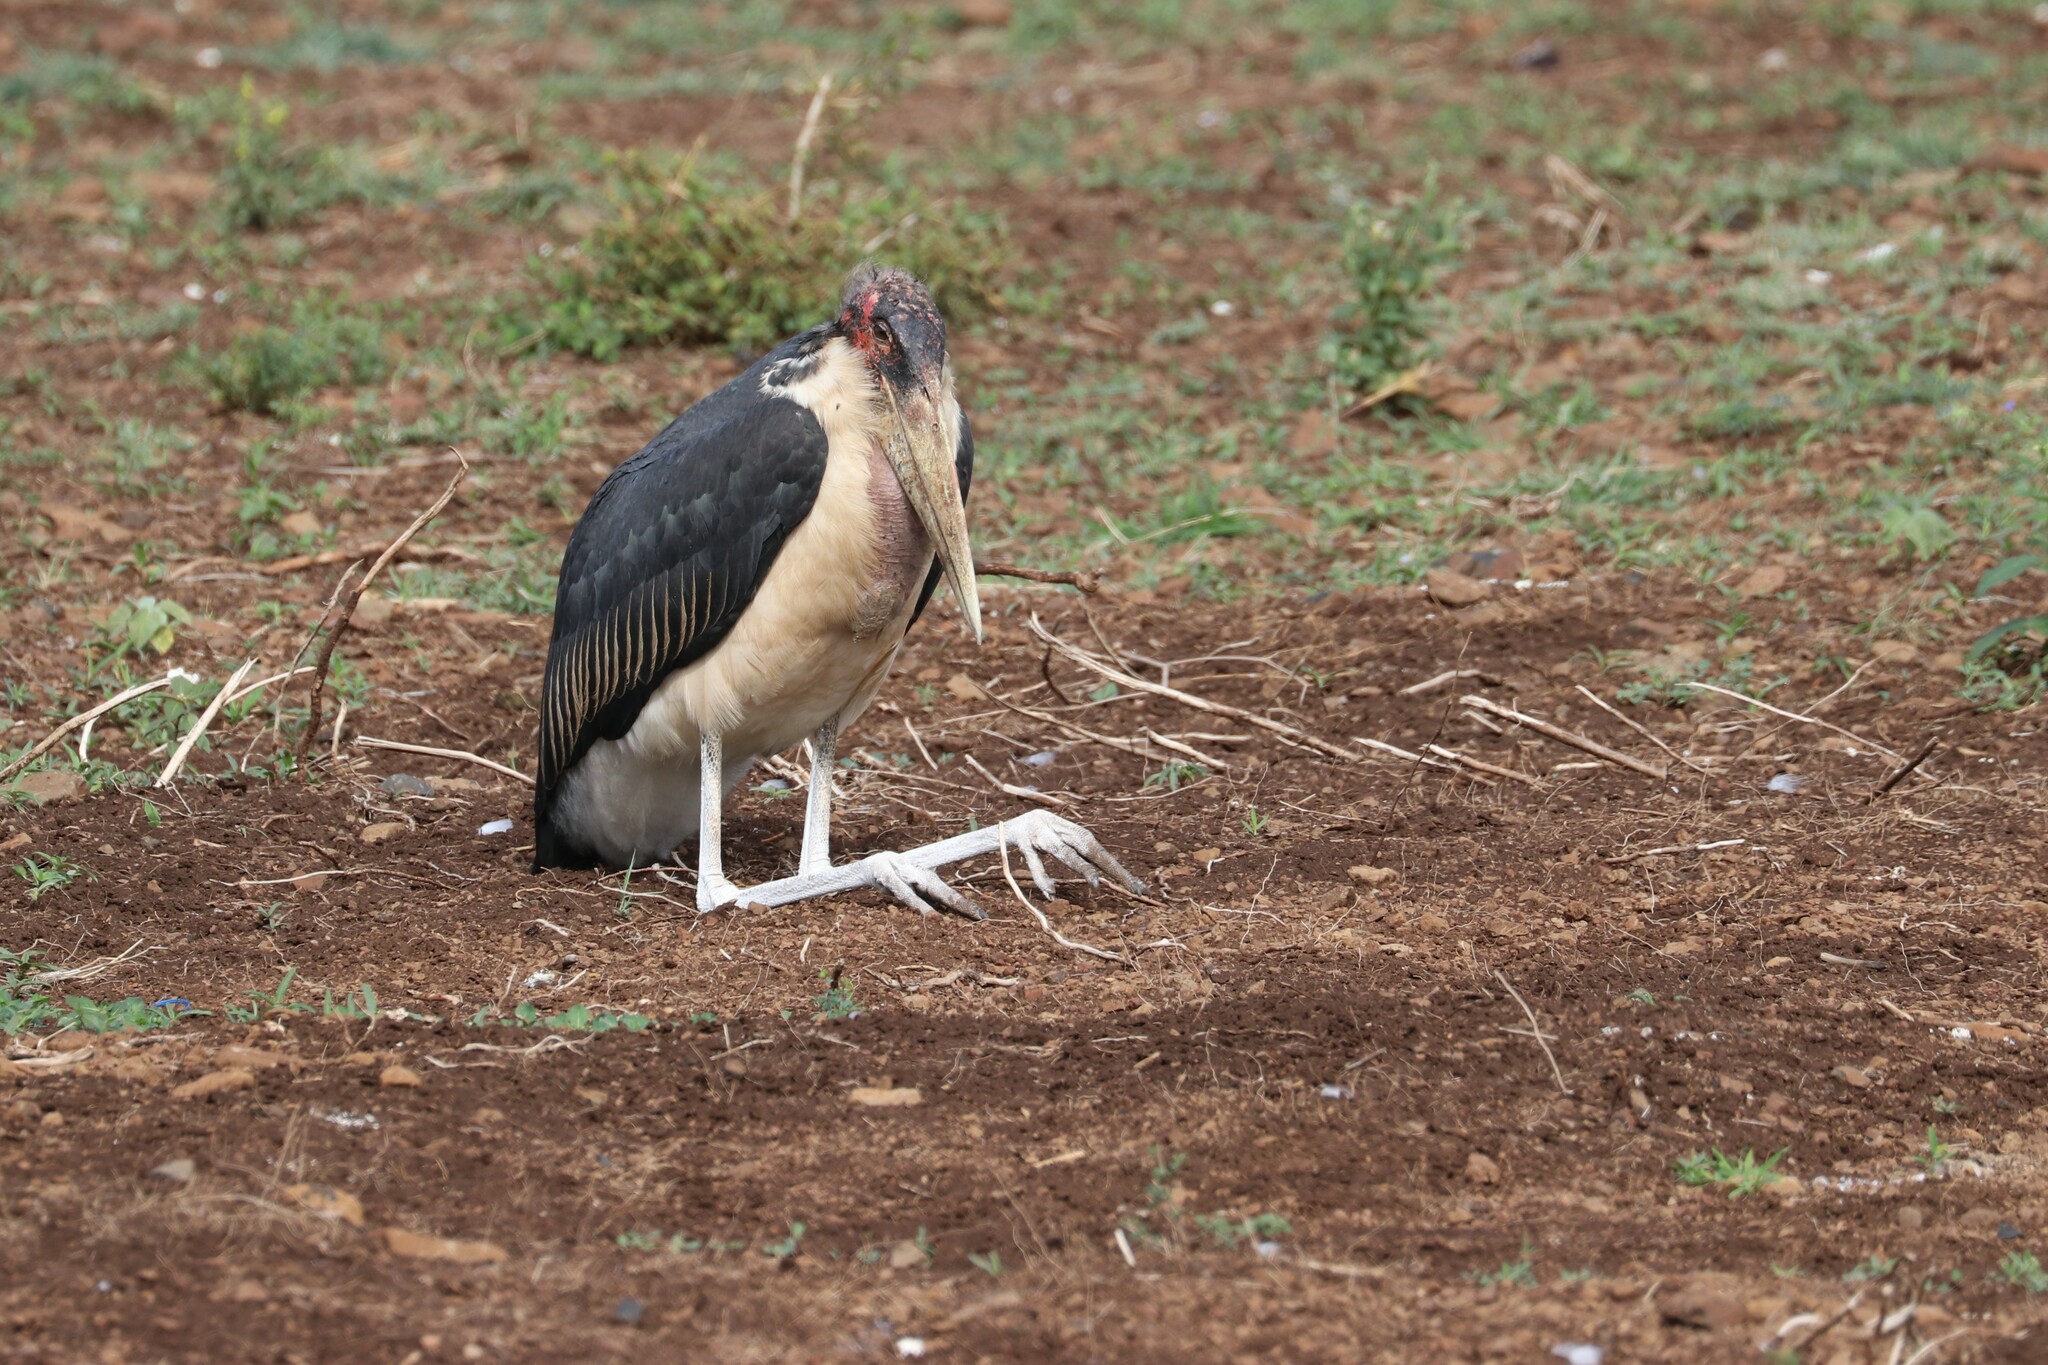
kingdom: Animalia
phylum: Chordata
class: Aves
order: Ciconiiformes
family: Ciconiidae
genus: Leptoptilos
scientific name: Leptoptilos crumenifer
